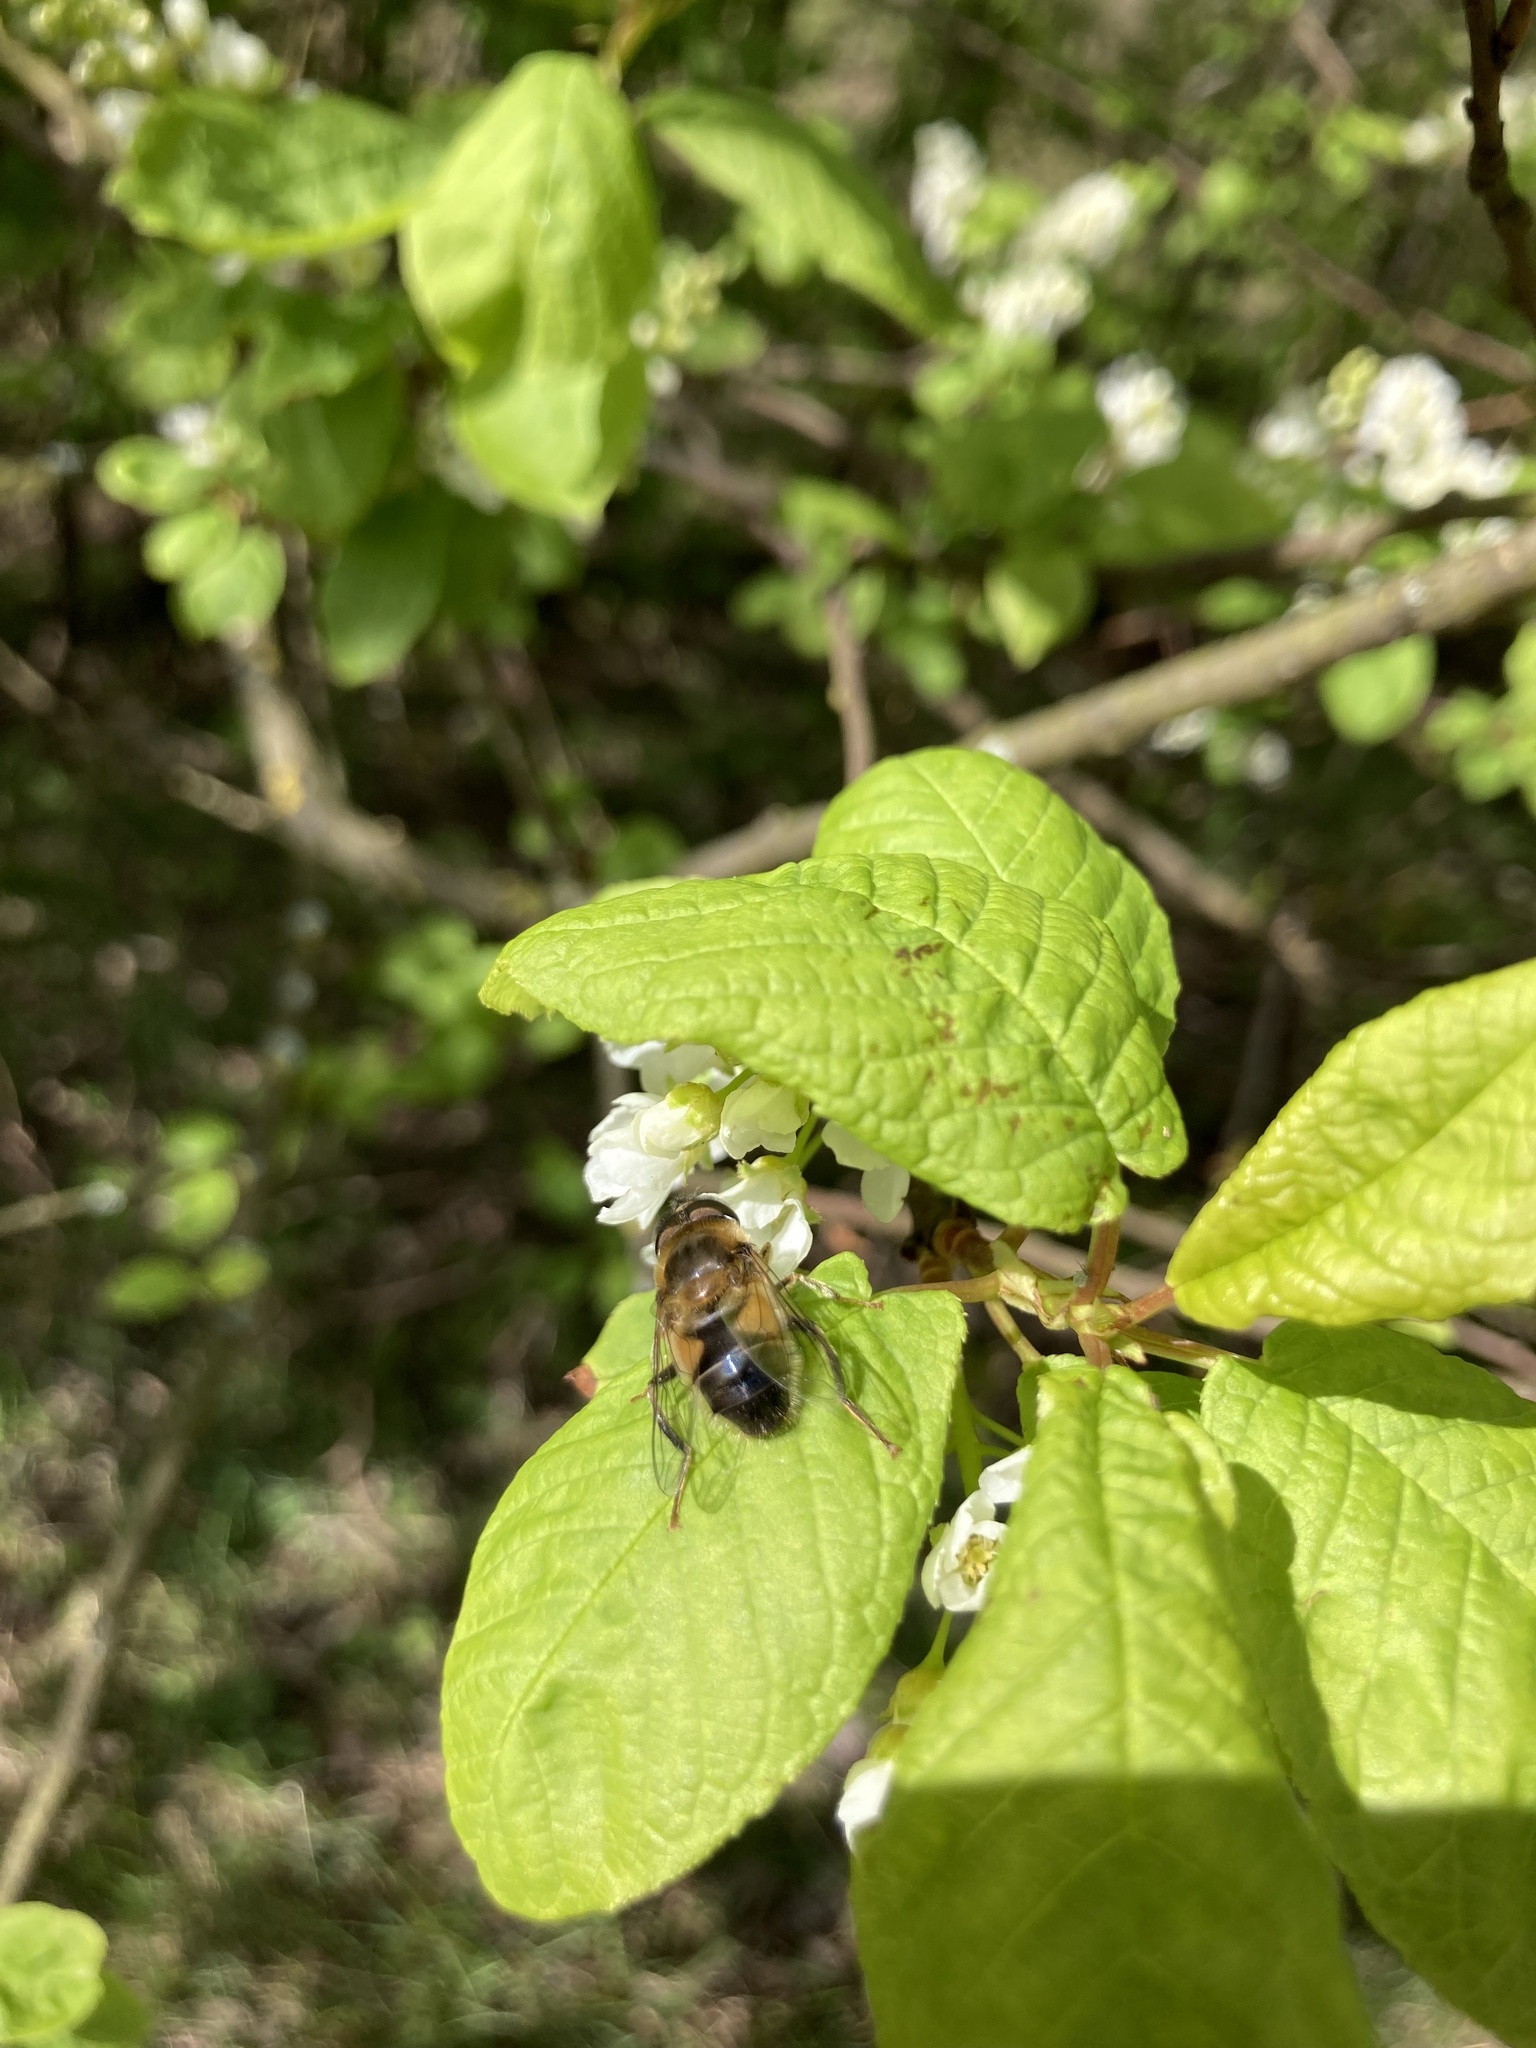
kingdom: Animalia
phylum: Arthropoda
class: Insecta
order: Diptera
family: Syrphidae
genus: Eristalis
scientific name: Eristalis pertinax
